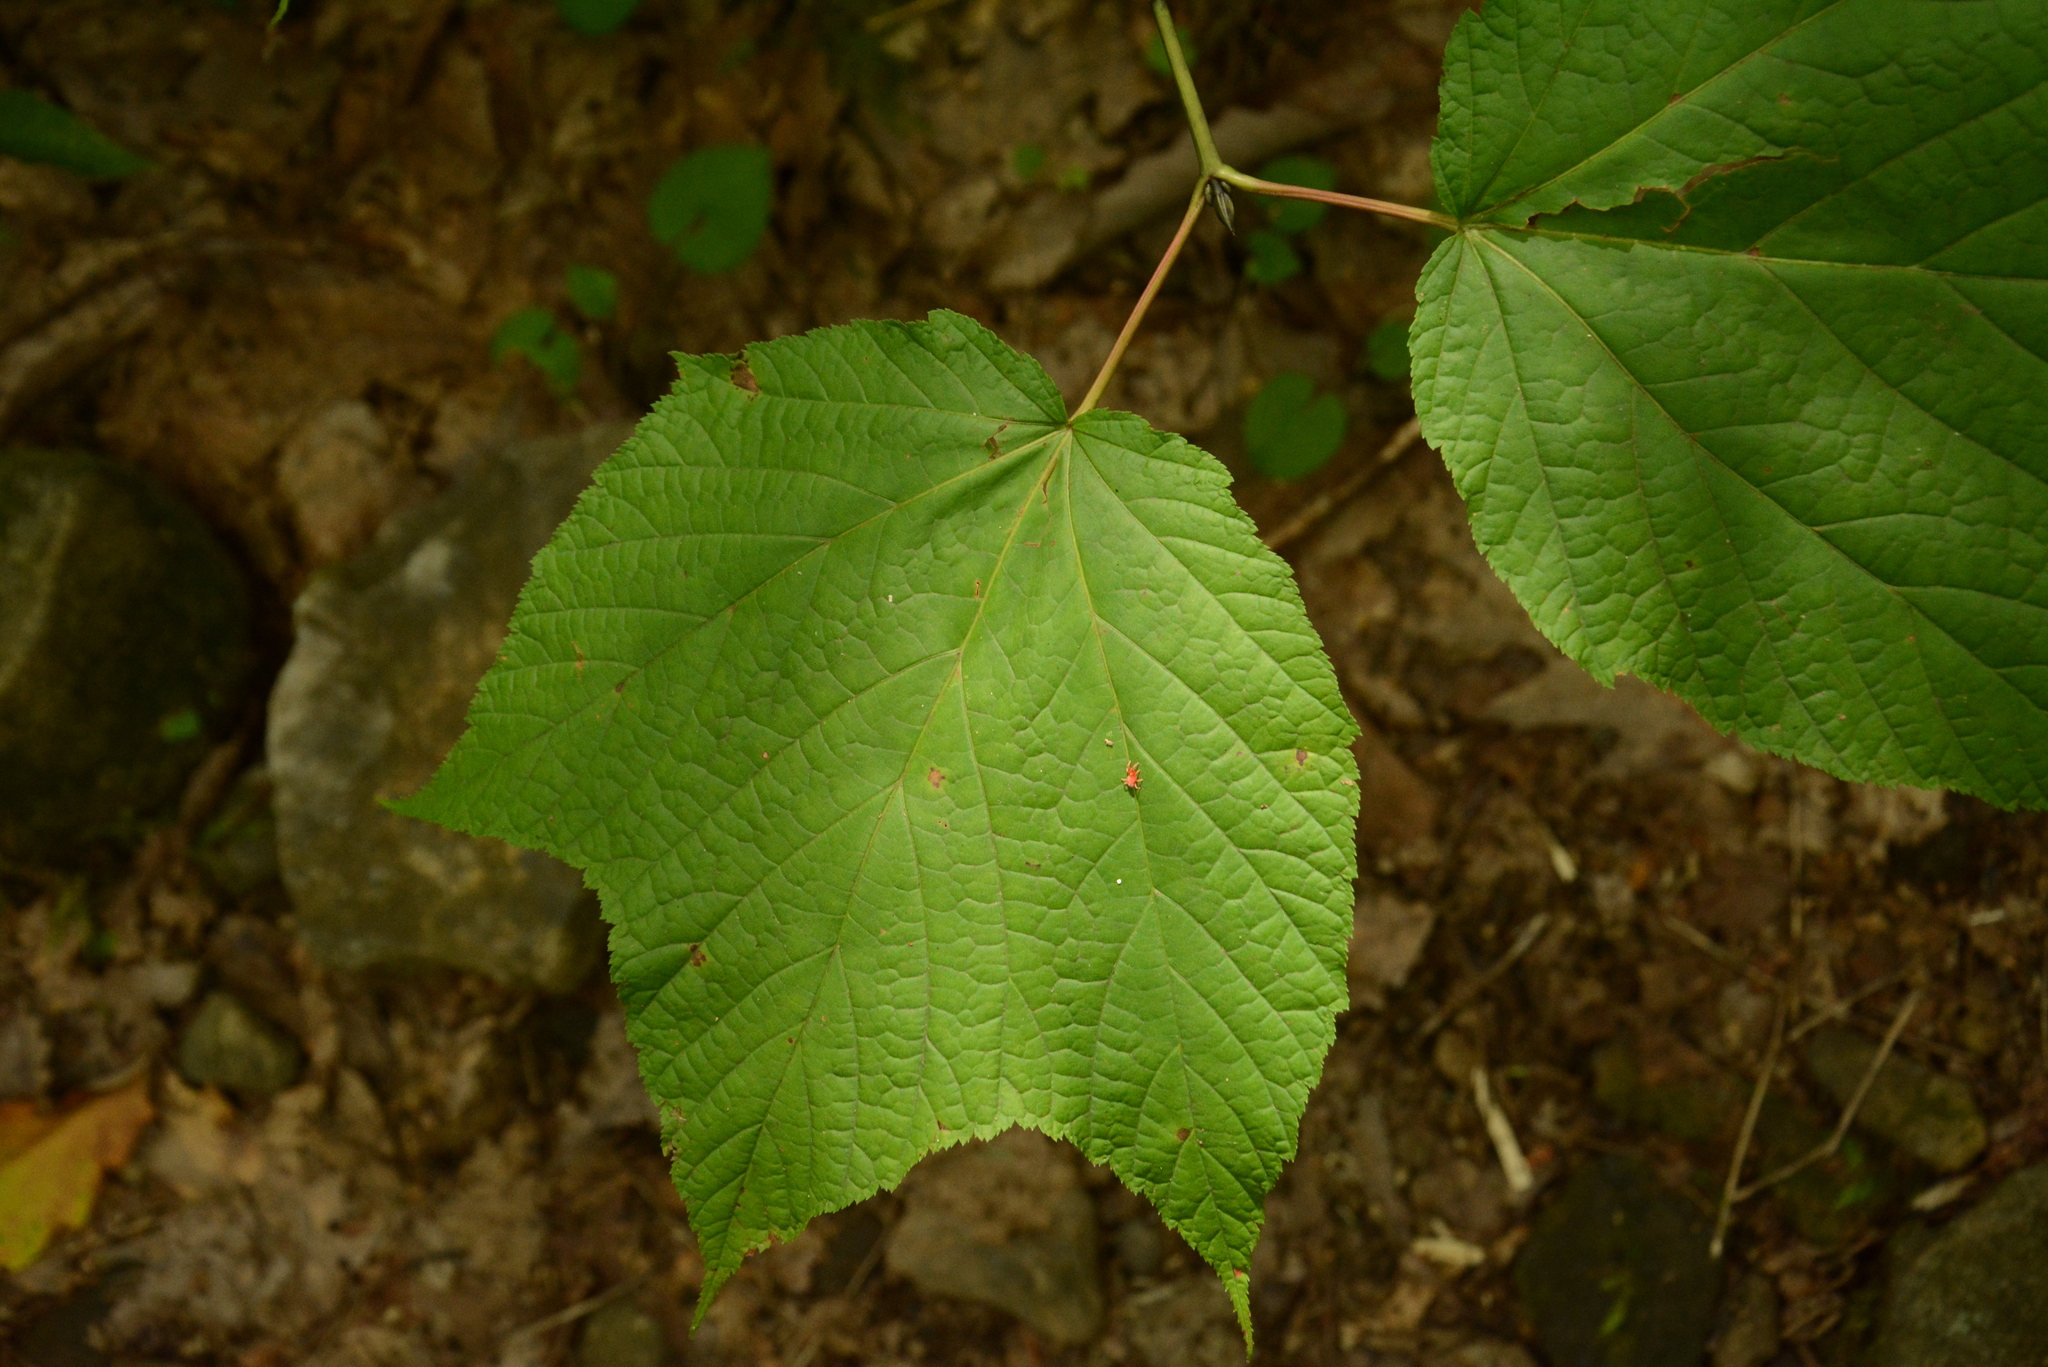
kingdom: Plantae
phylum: Tracheophyta
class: Magnoliopsida
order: Sapindales
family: Sapindaceae
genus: Acer
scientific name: Acer pensylvanicum
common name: Moosewood
